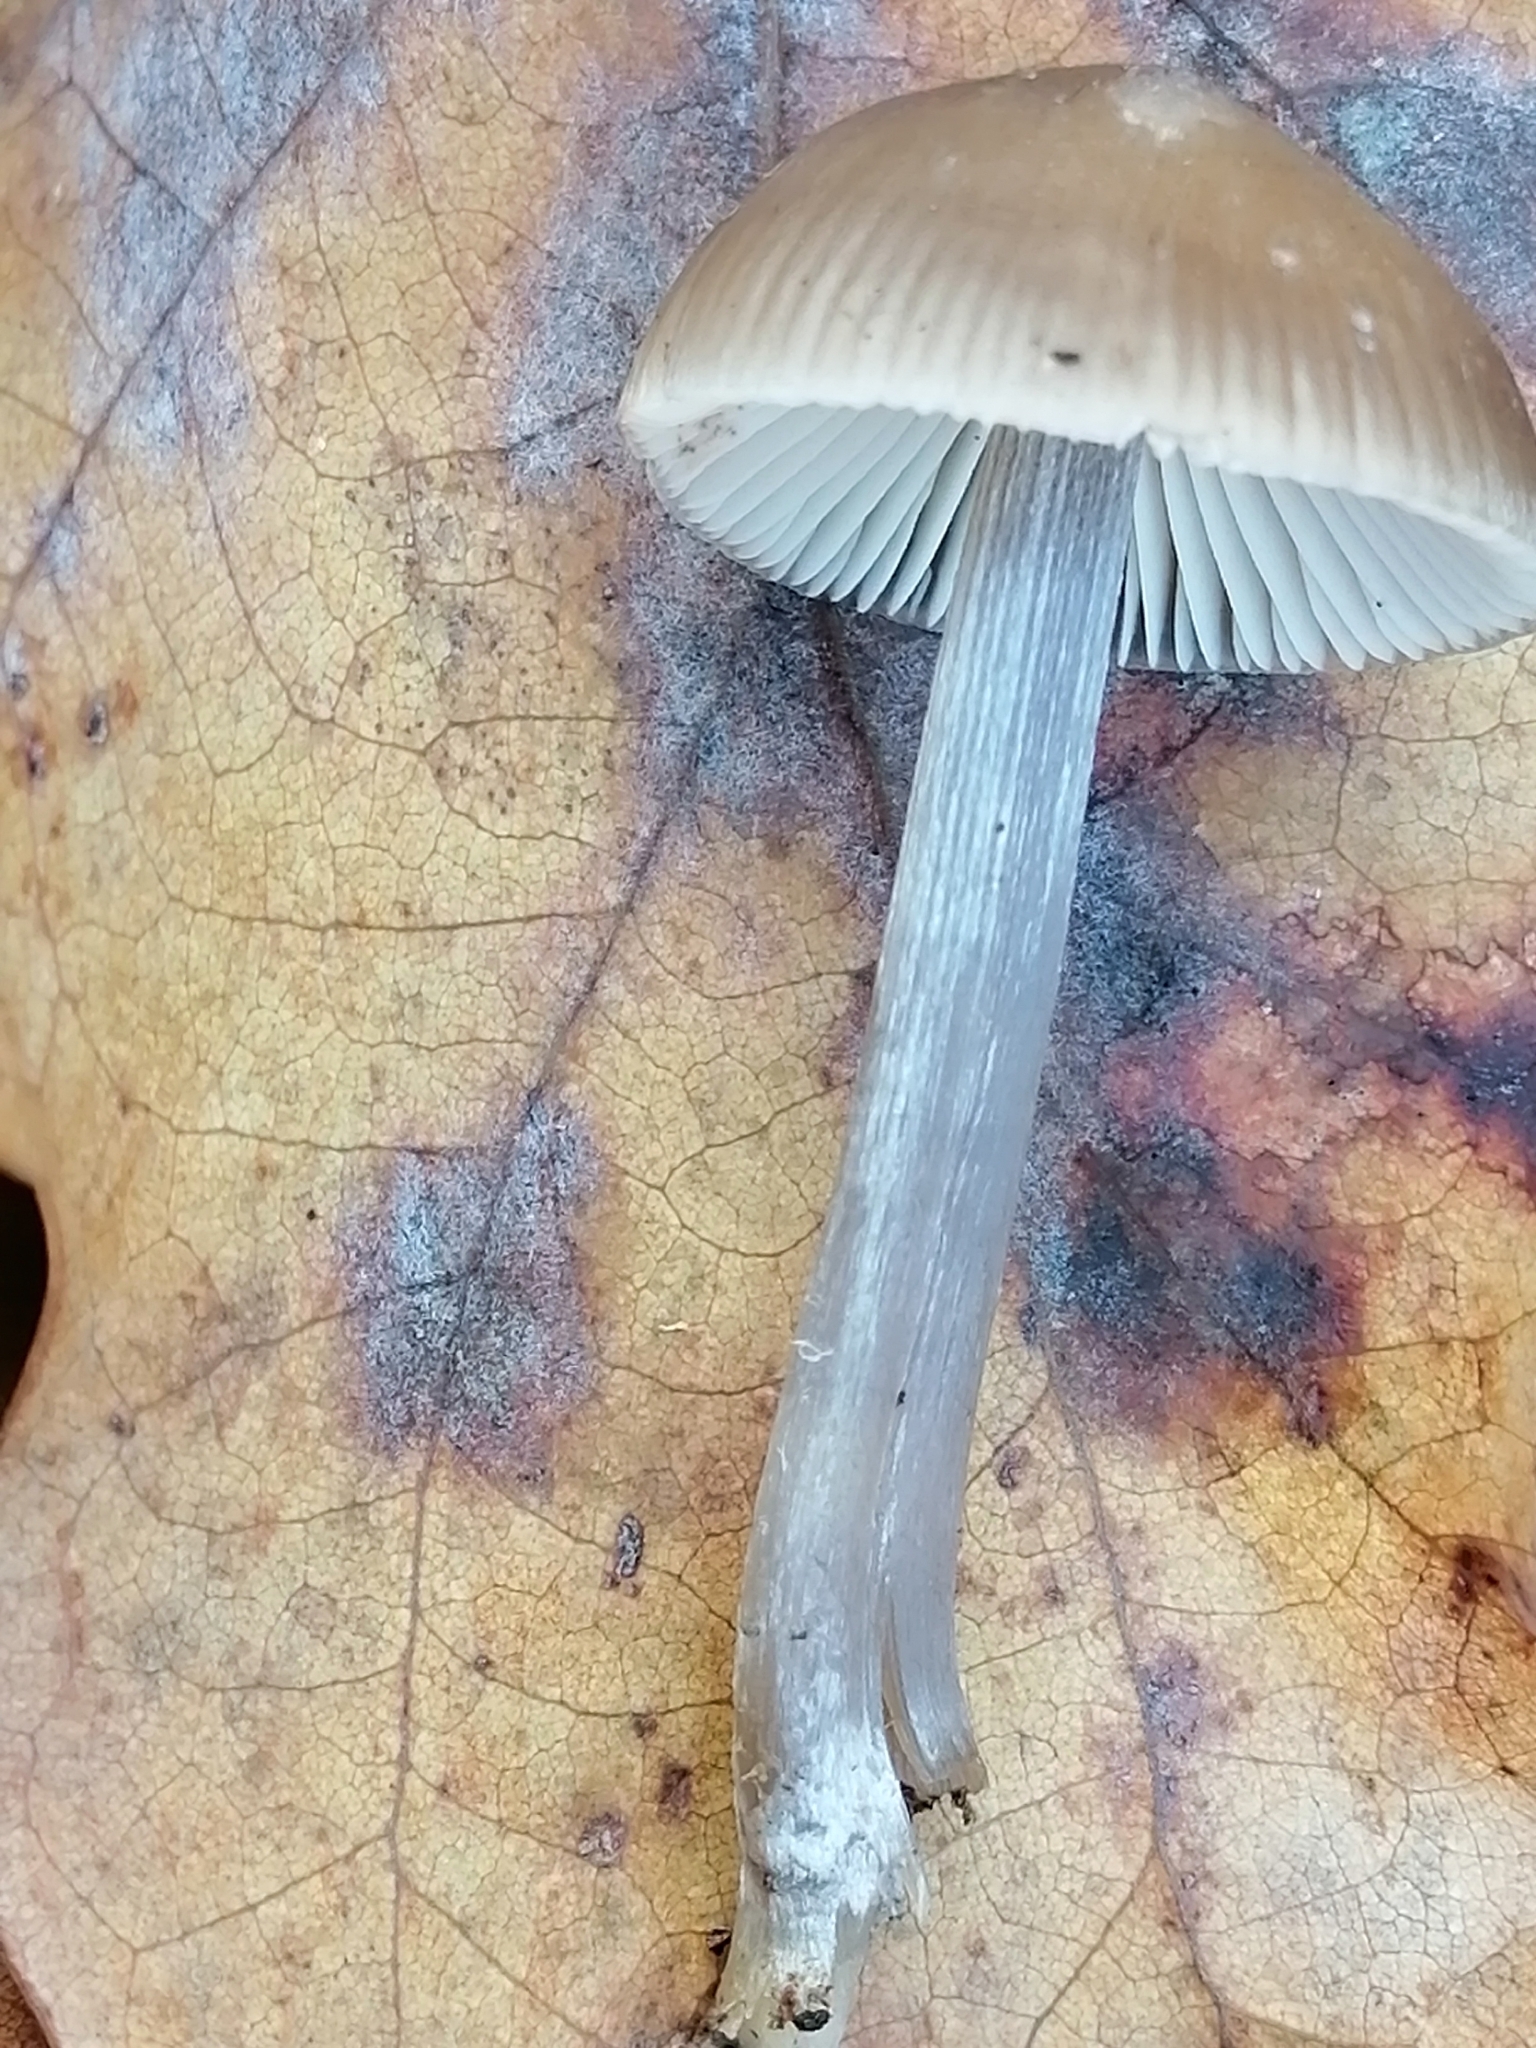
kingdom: Fungi
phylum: Basidiomycota
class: Agaricomycetes
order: Agaricales
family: Mycenaceae
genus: Mycena
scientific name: Mycena polygramma
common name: Grooved bonnet
